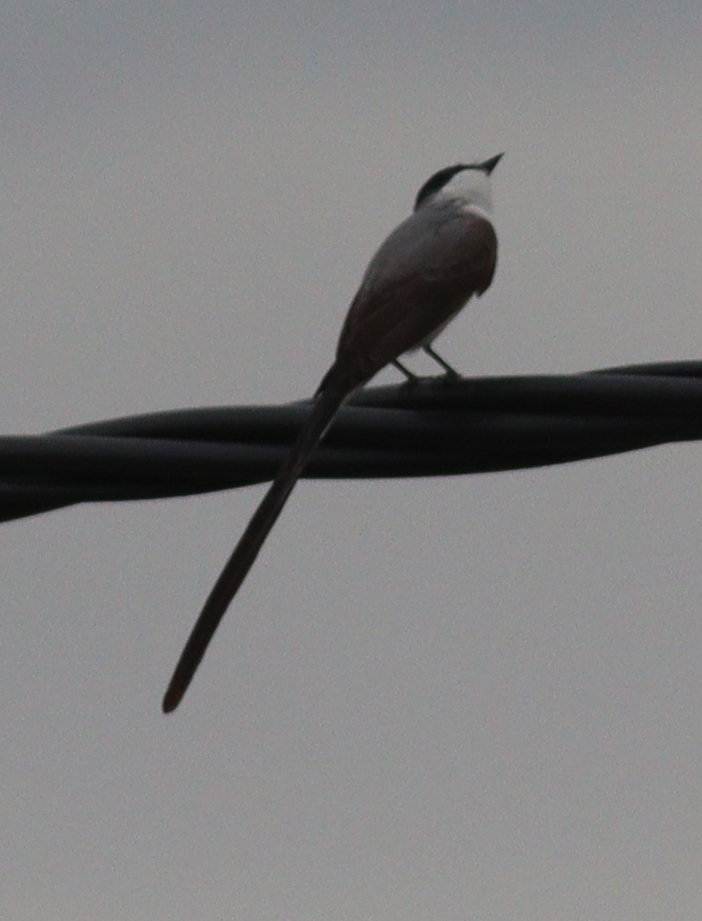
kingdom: Animalia
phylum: Chordata
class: Aves
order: Passeriformes
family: Tyrannidae
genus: Tyrannus
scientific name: Tyrannus savana
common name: Fork-tailed flycatcher
